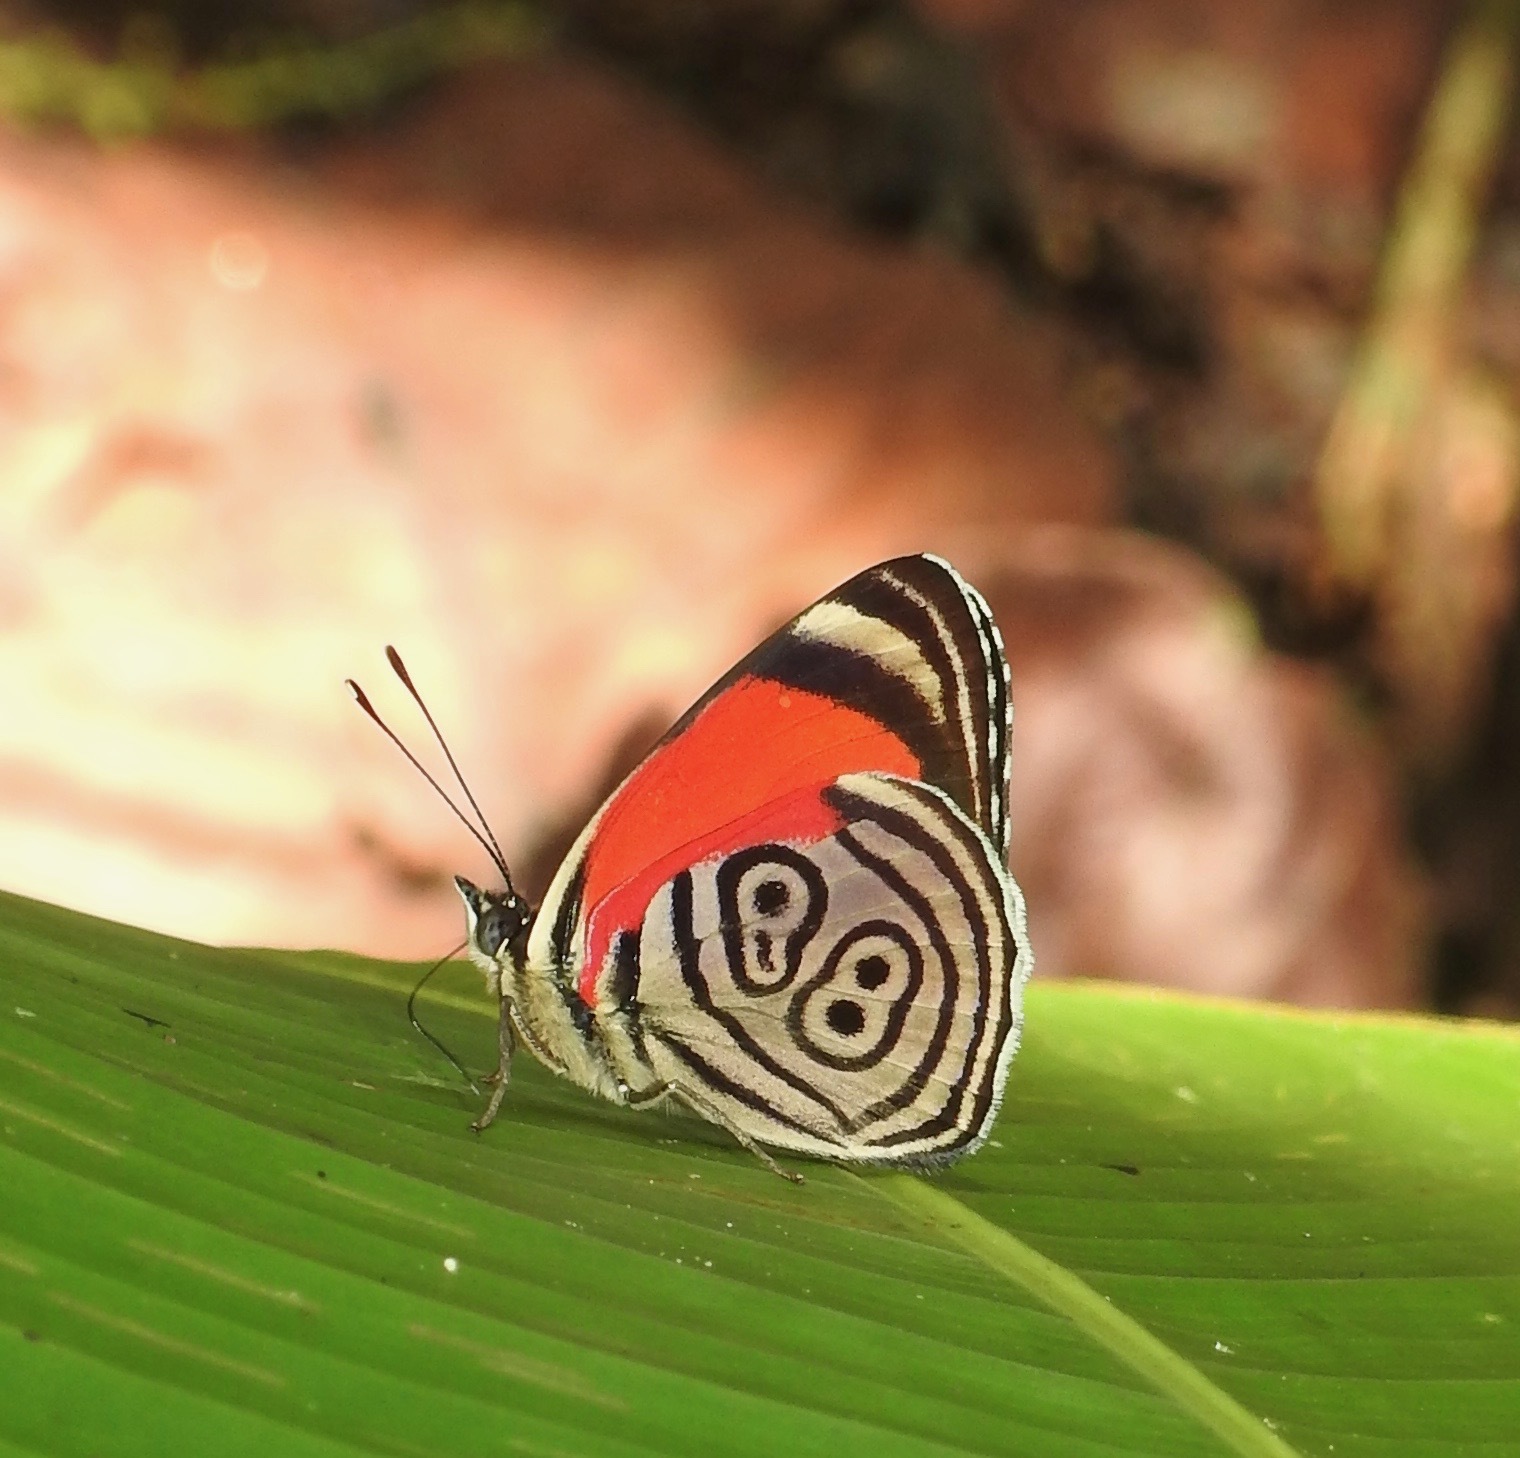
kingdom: Animalia
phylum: Arthropoda
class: Insecta
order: Lepidoptera
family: Nymphalidae
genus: Diaethria
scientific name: Diaethria clymena
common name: Widespread eighty-eight
